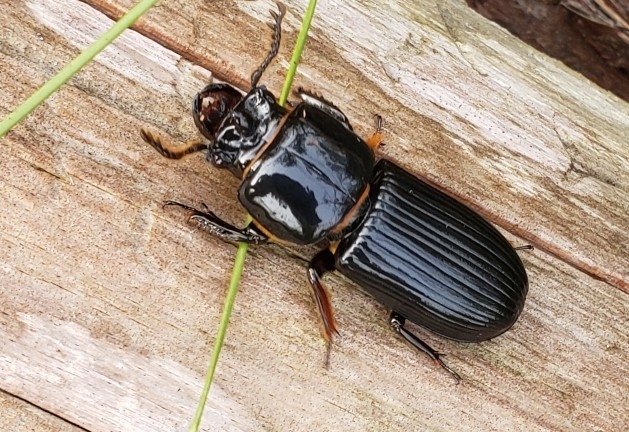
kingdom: Animalia
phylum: Arthropoda
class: Insecta
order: Coleoptera
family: Passalidae
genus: Odontotaenius
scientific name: Odontotaenius disjunctus
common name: Patent leather beetle
